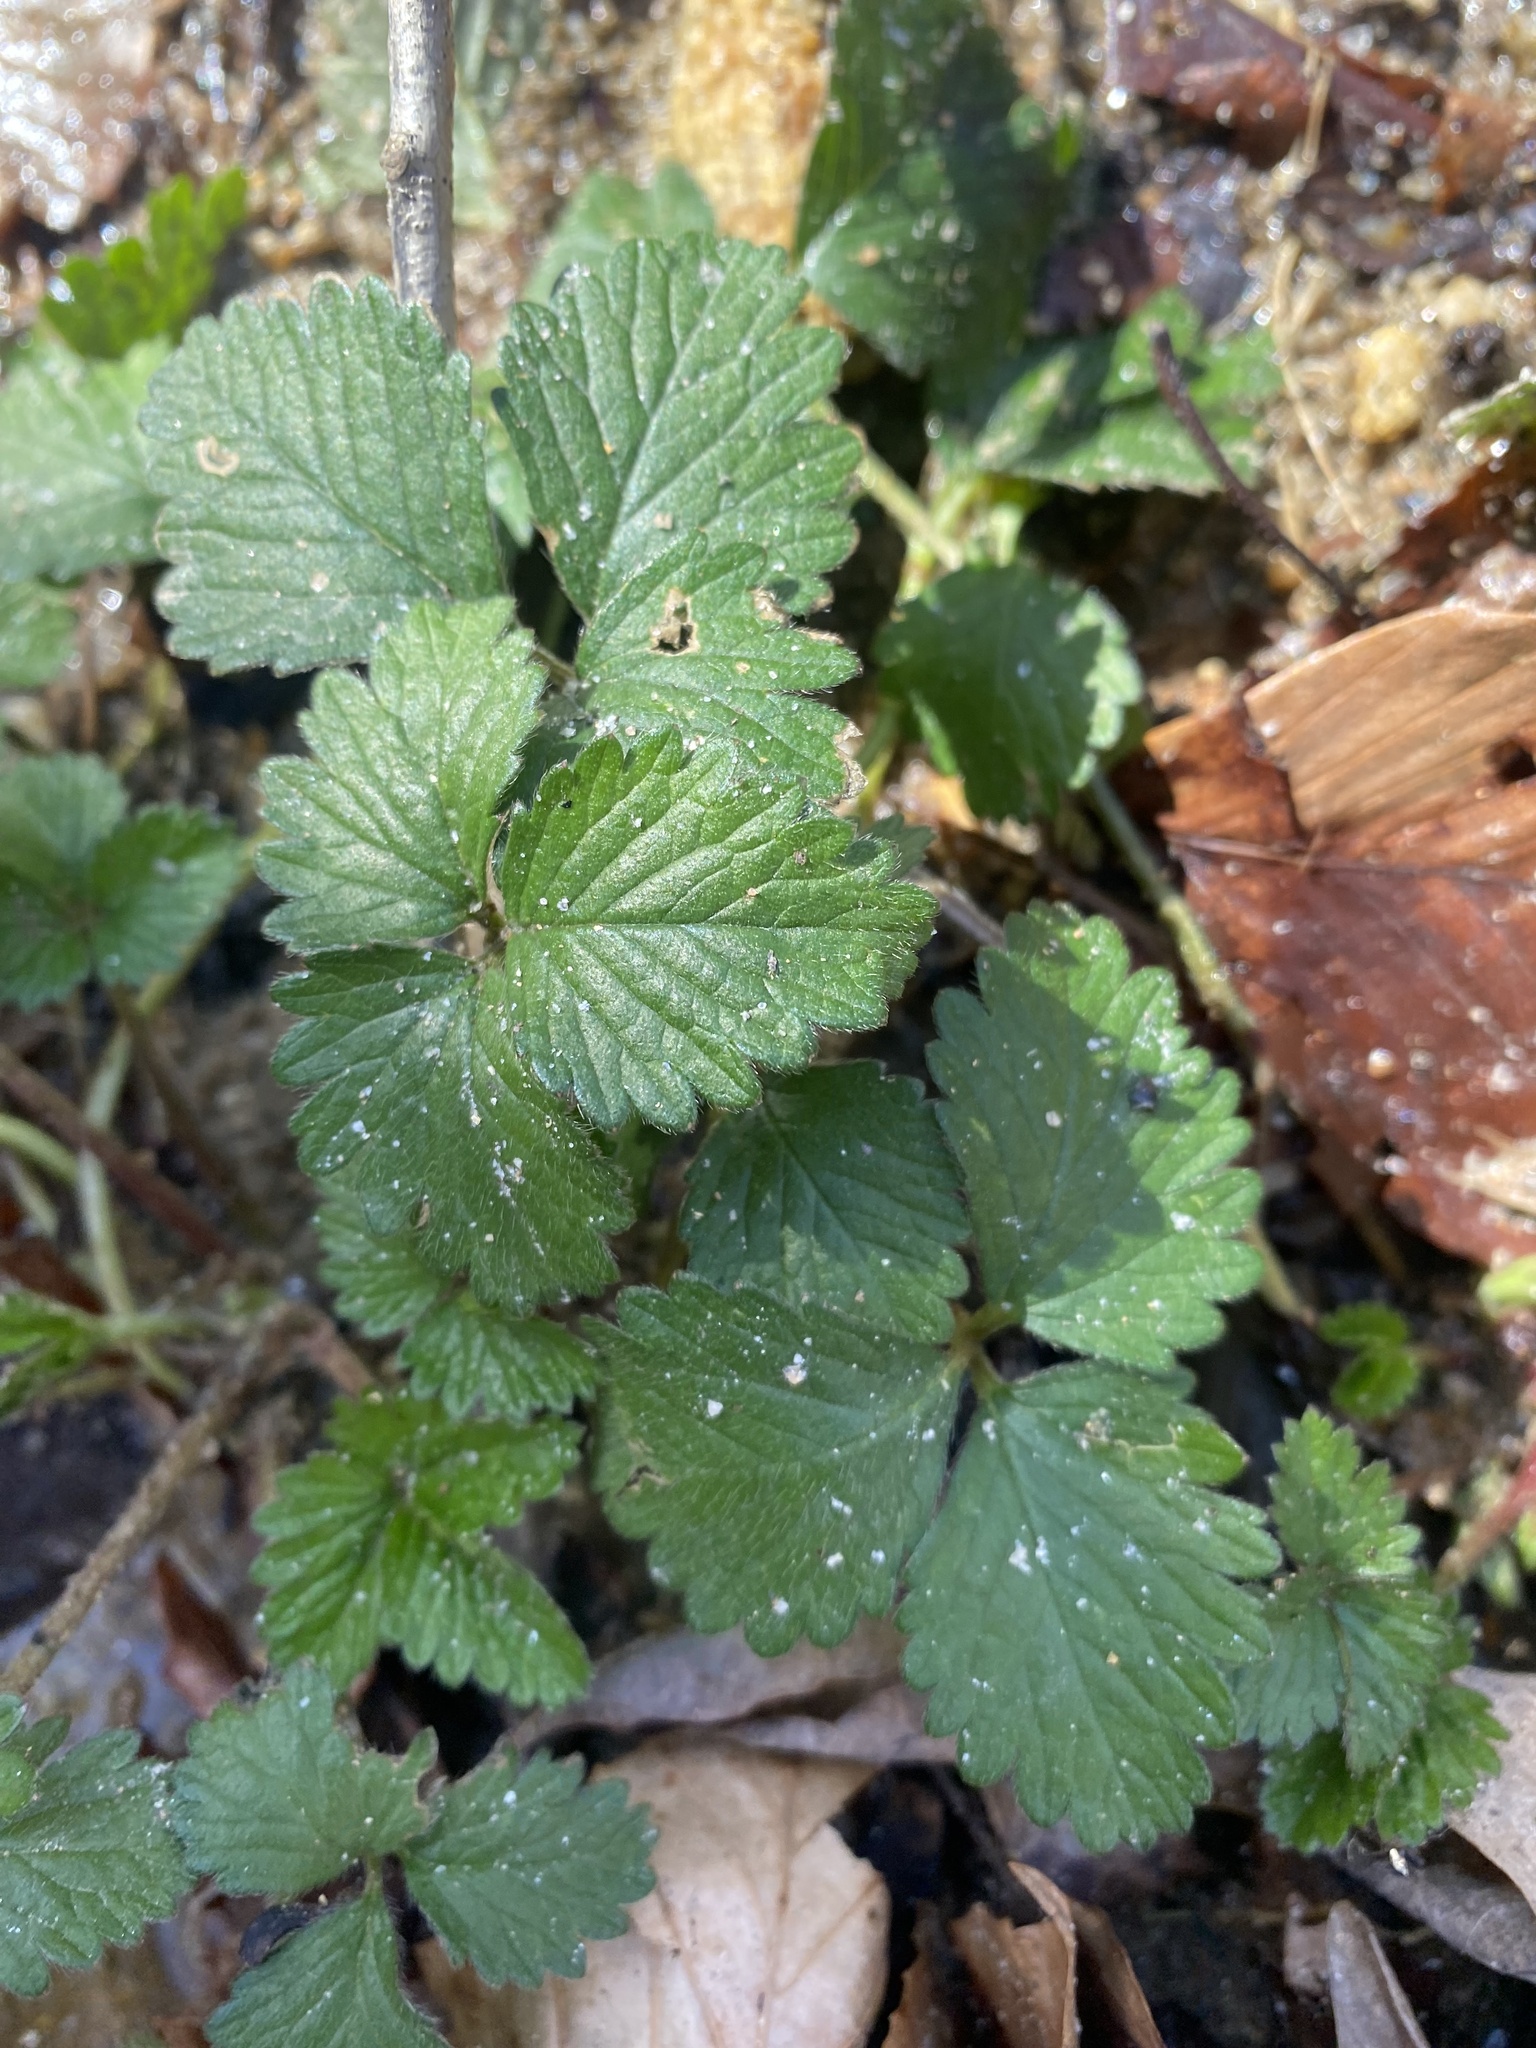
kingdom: Plantae
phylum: Tracheophyta
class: Magnoliopsida
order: Rosales
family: Rosaceae
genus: Potentilla
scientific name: Potentilla indica
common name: Yellow-flowered strawberry
